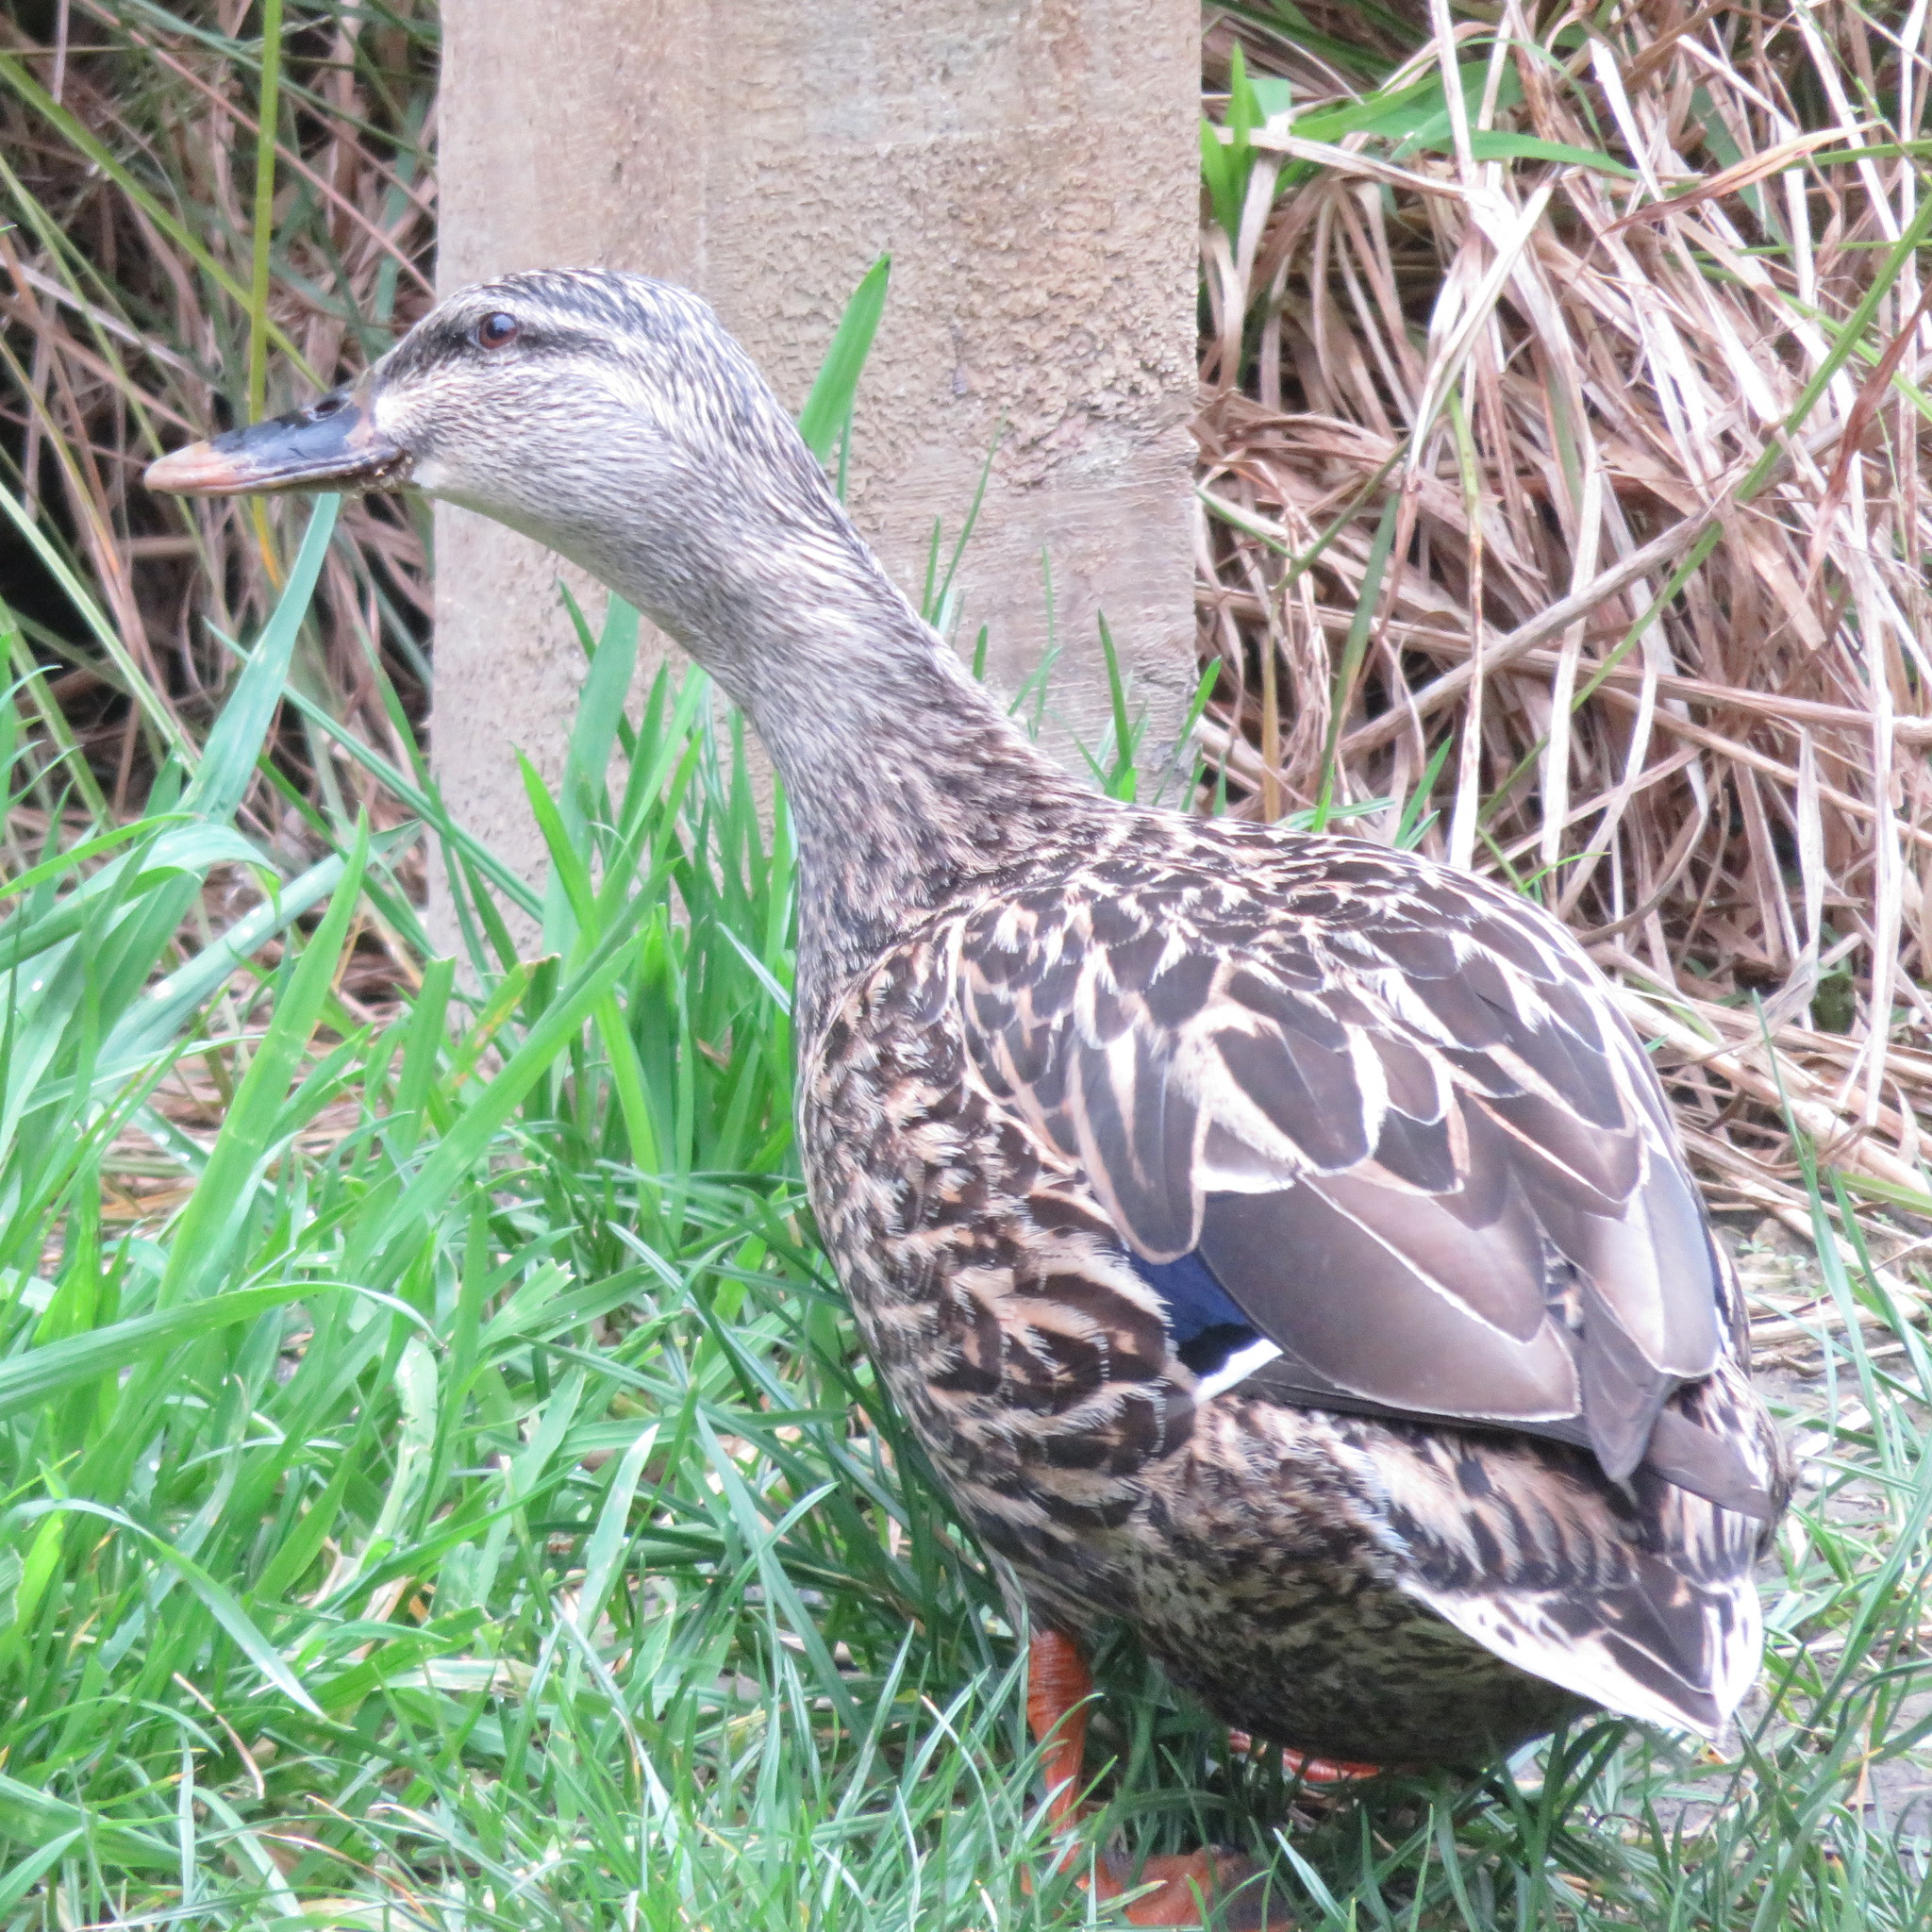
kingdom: Animalia
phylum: Chordata
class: Aves
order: Anseriformes
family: Anatidae
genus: Anas
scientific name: Anas
